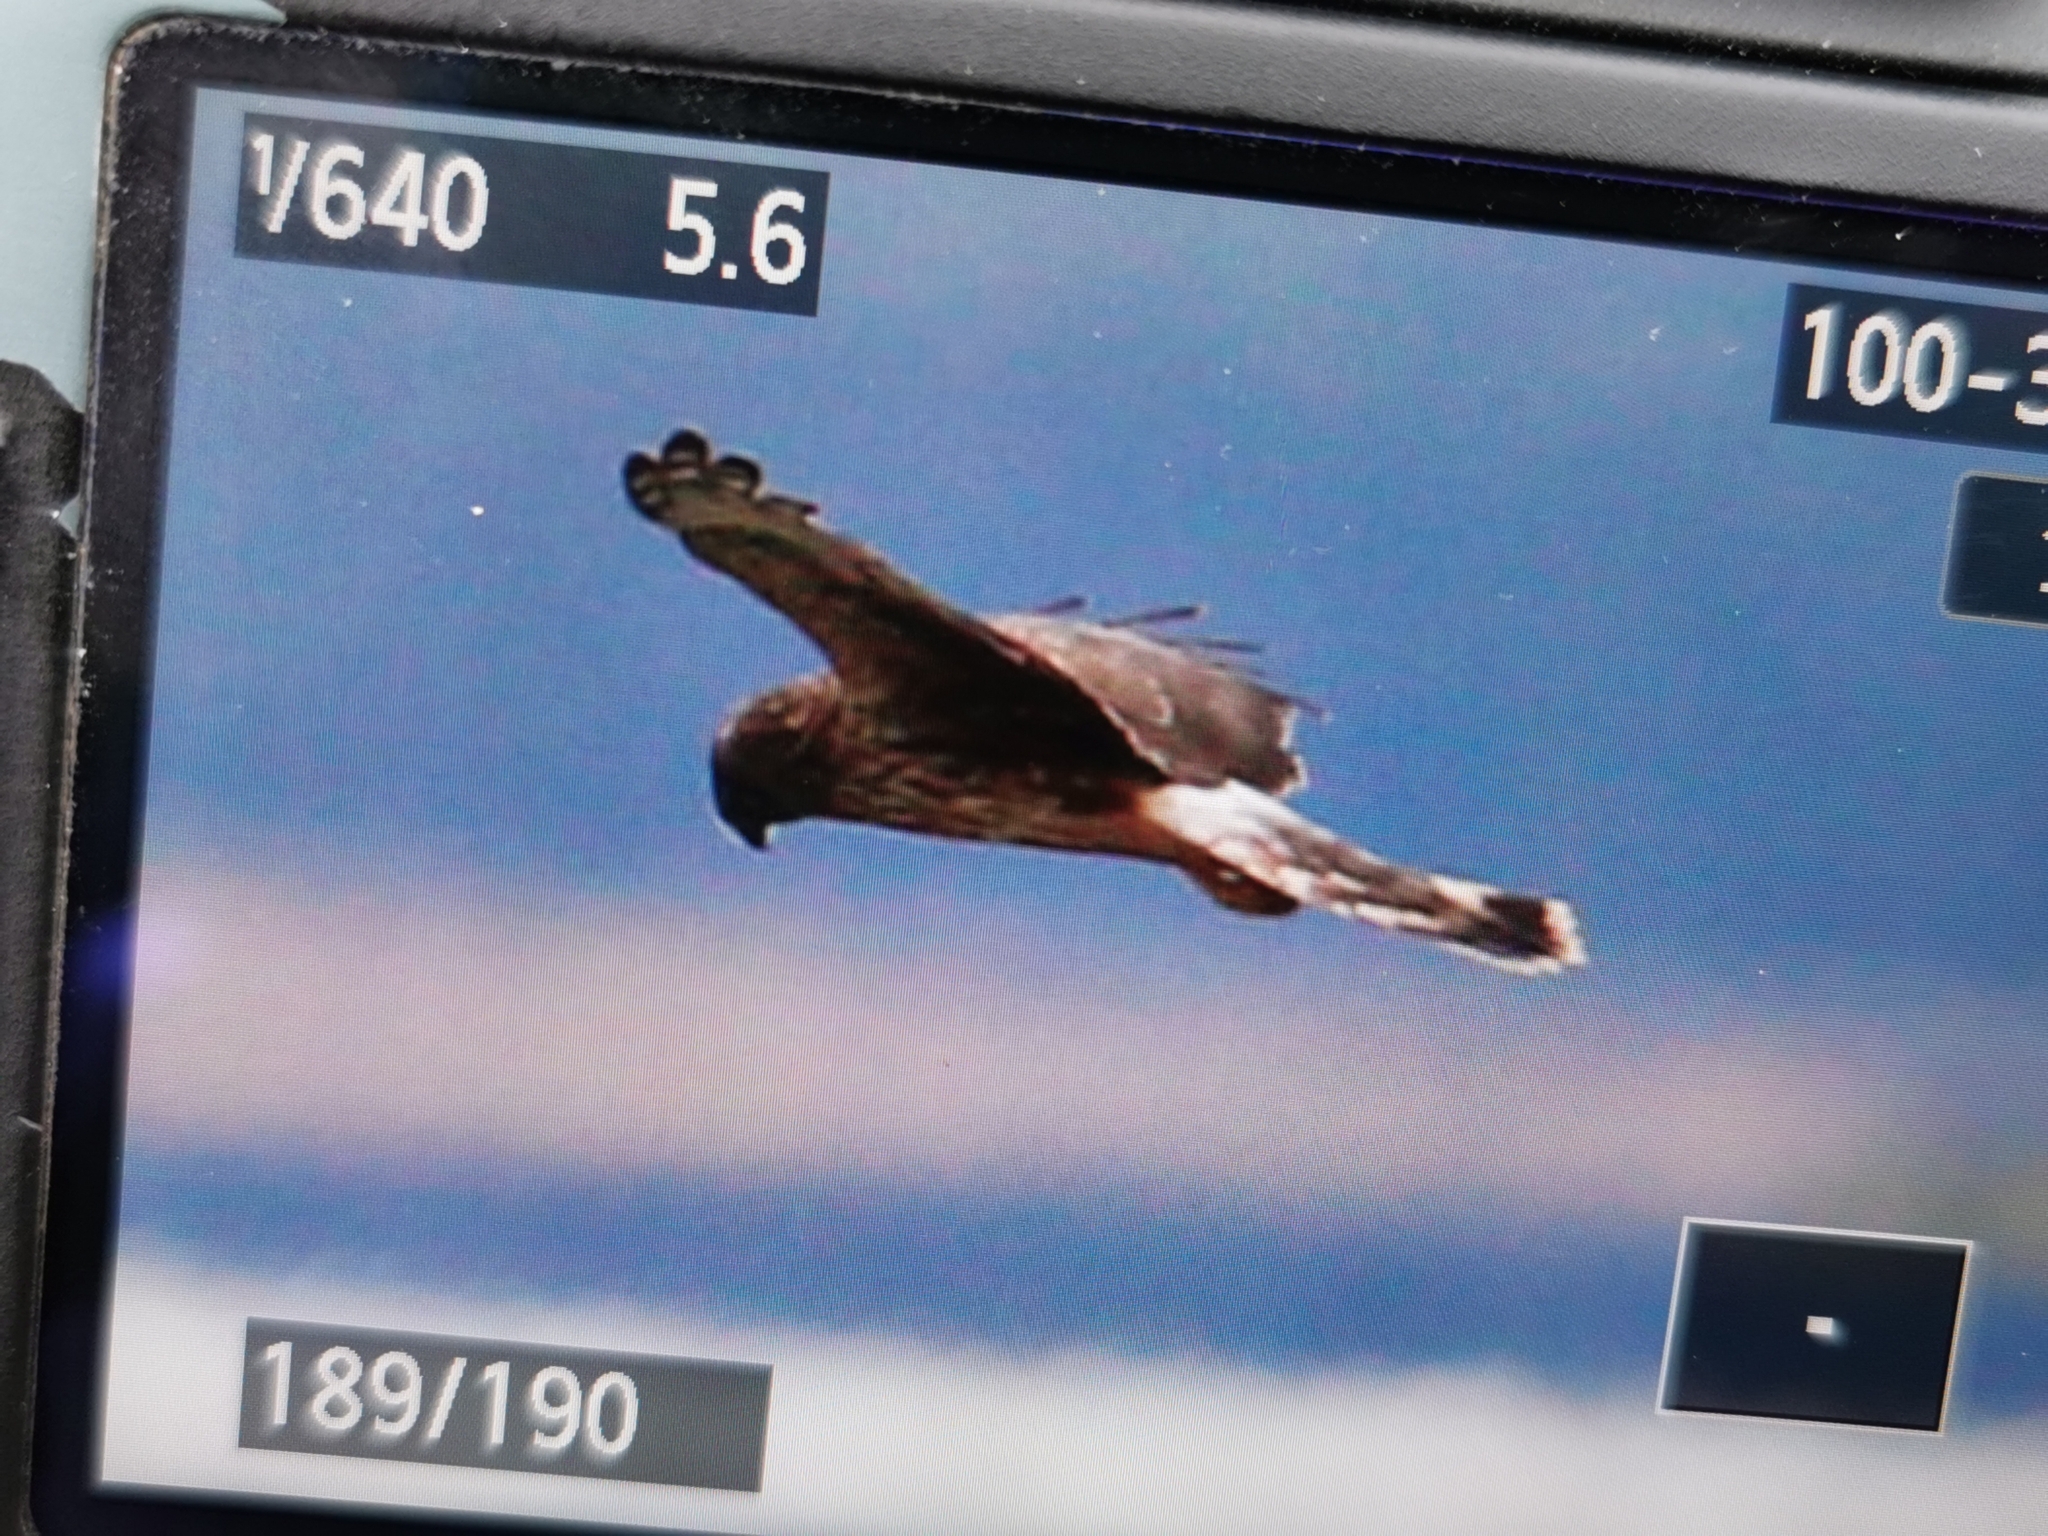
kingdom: Animalia
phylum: Chordata
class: Aves
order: Accipitriformes
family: Accipitridae
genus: Circus
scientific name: Circus cyaneus
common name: Hen harrier
